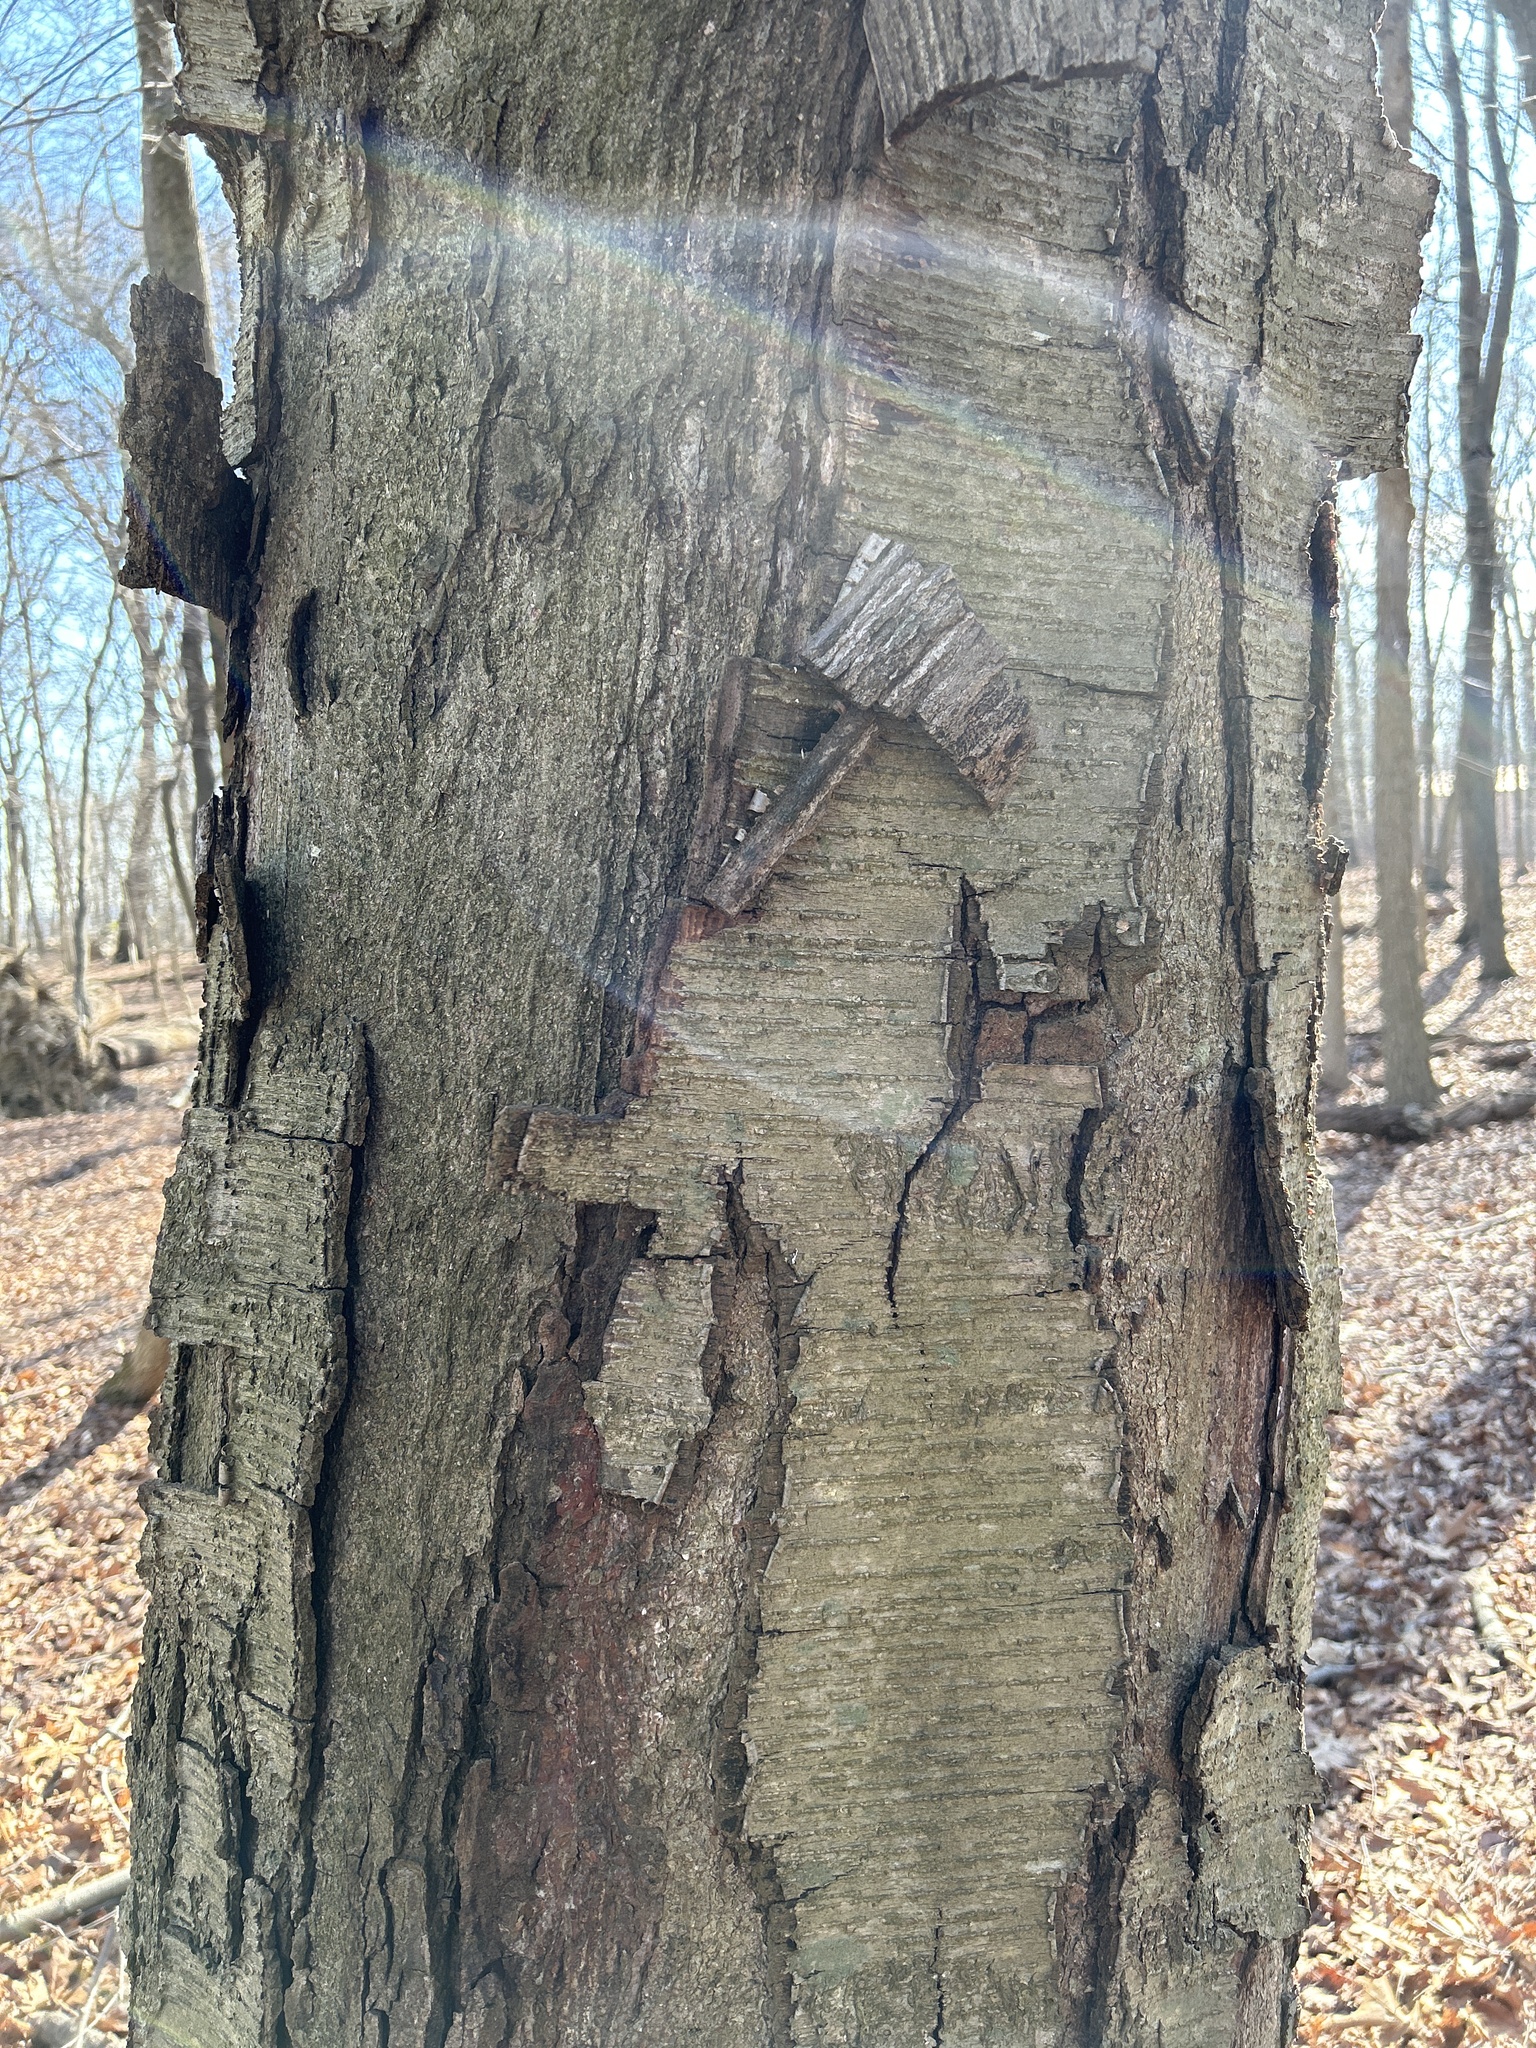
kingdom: Plantae
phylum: Tracheophyta
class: Magnoliopsida
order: Fagales
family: Betulaceae
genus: Betula
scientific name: Betula lenta
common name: Black birch
